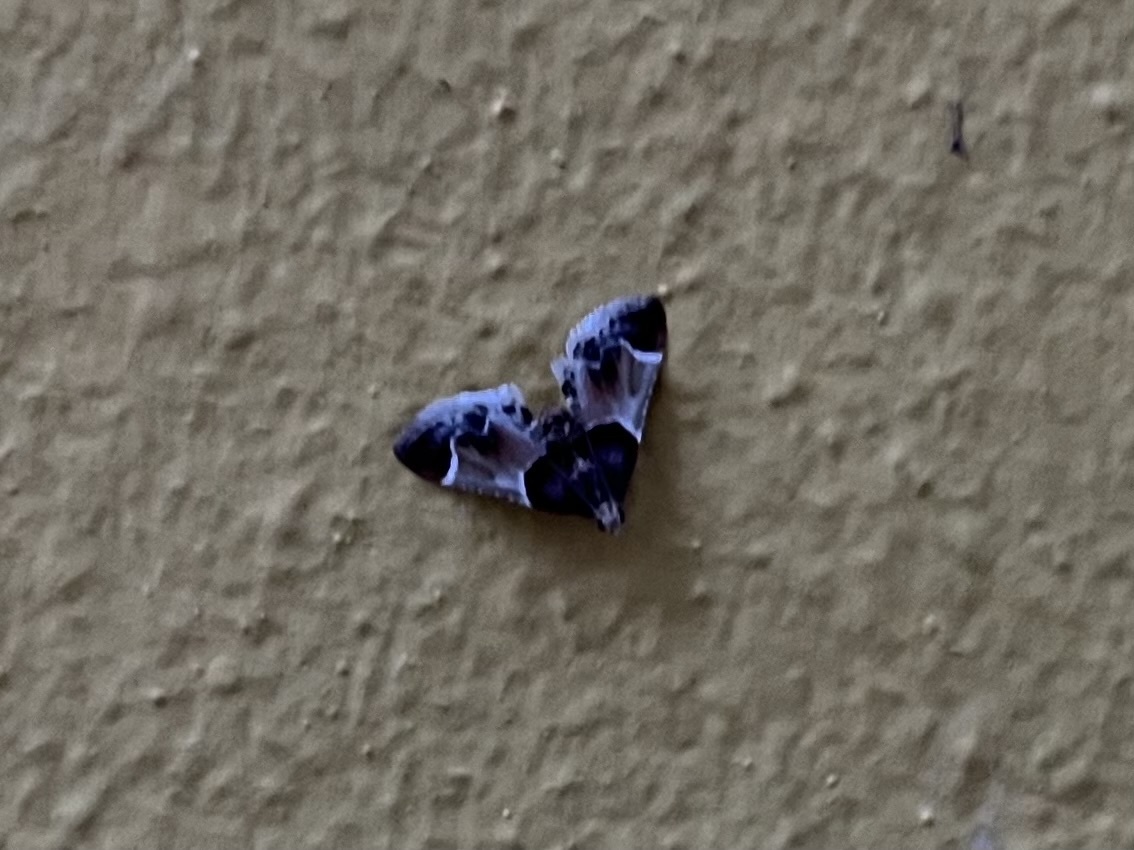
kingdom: Animalia
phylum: Arthropoda
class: Insecta
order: Lepidoptera
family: Pyralidae
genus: Pyralis
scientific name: Pyralis farinalis
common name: Meal moth
